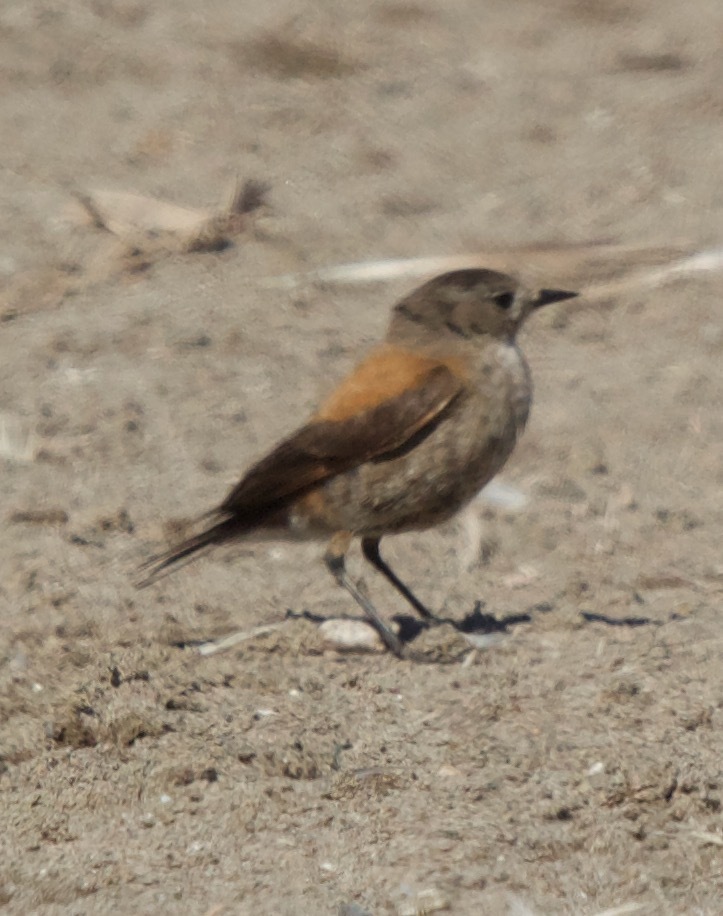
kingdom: Animalia
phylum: Chordata
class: Aves
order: Passeriformes
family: Tyrannidae
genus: Lessonia
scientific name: Lessonia rufa
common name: Austral negrito
